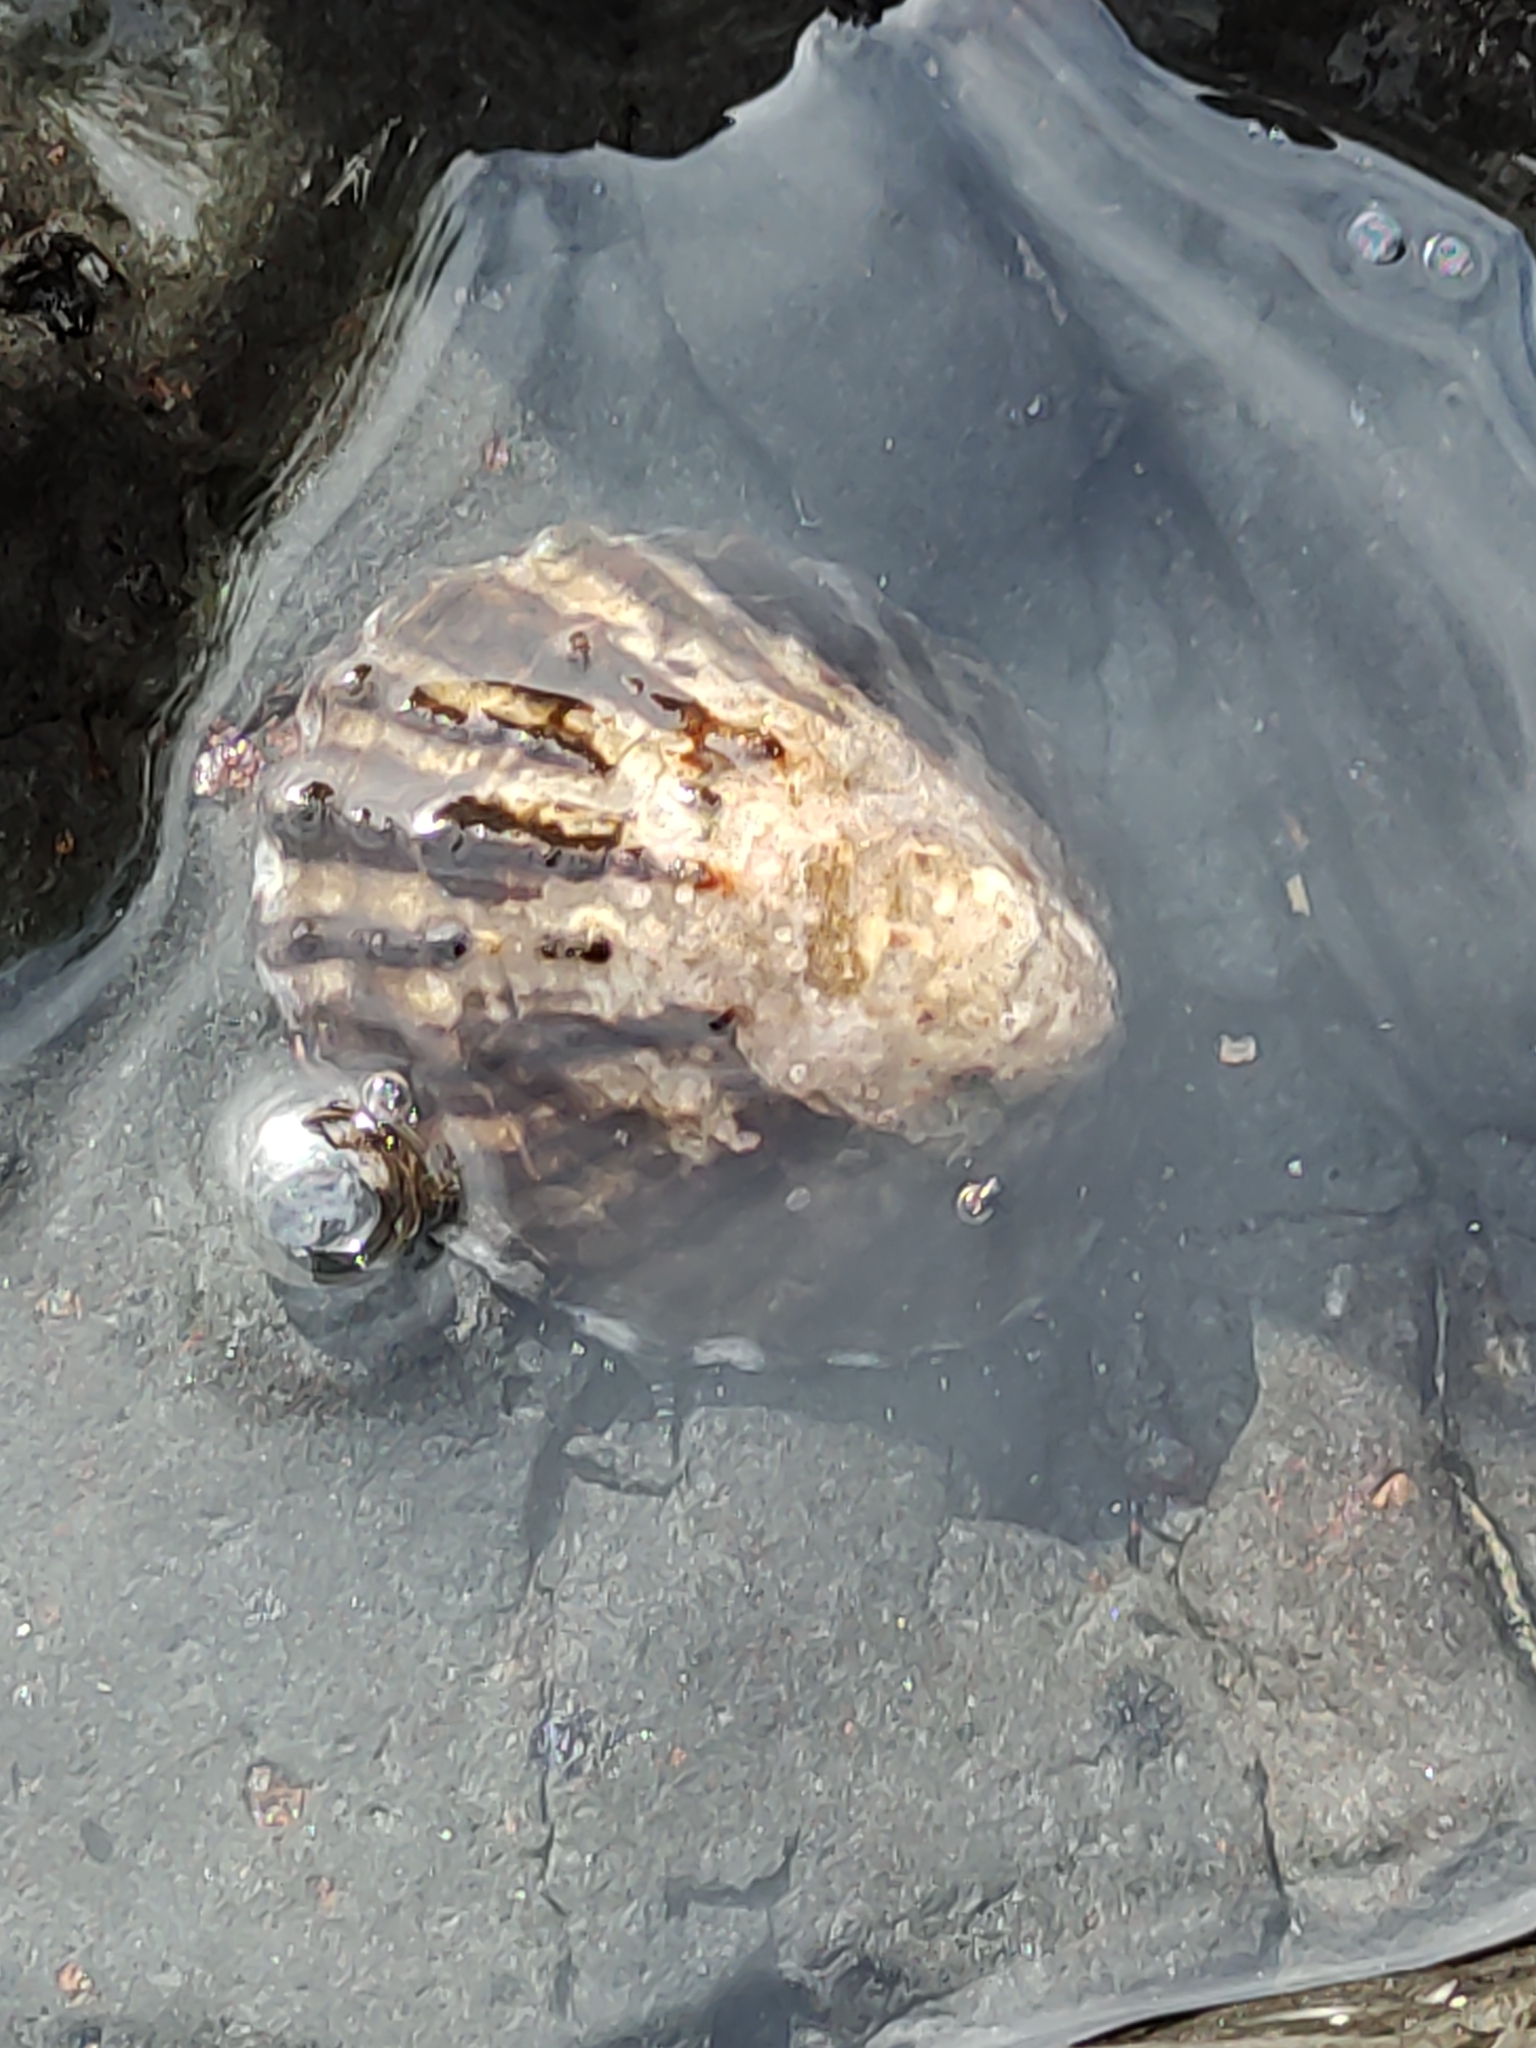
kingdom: Animalia
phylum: Mollusca
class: Gastropoda
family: Nacellidae
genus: Cellana
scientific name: Cellana radians
